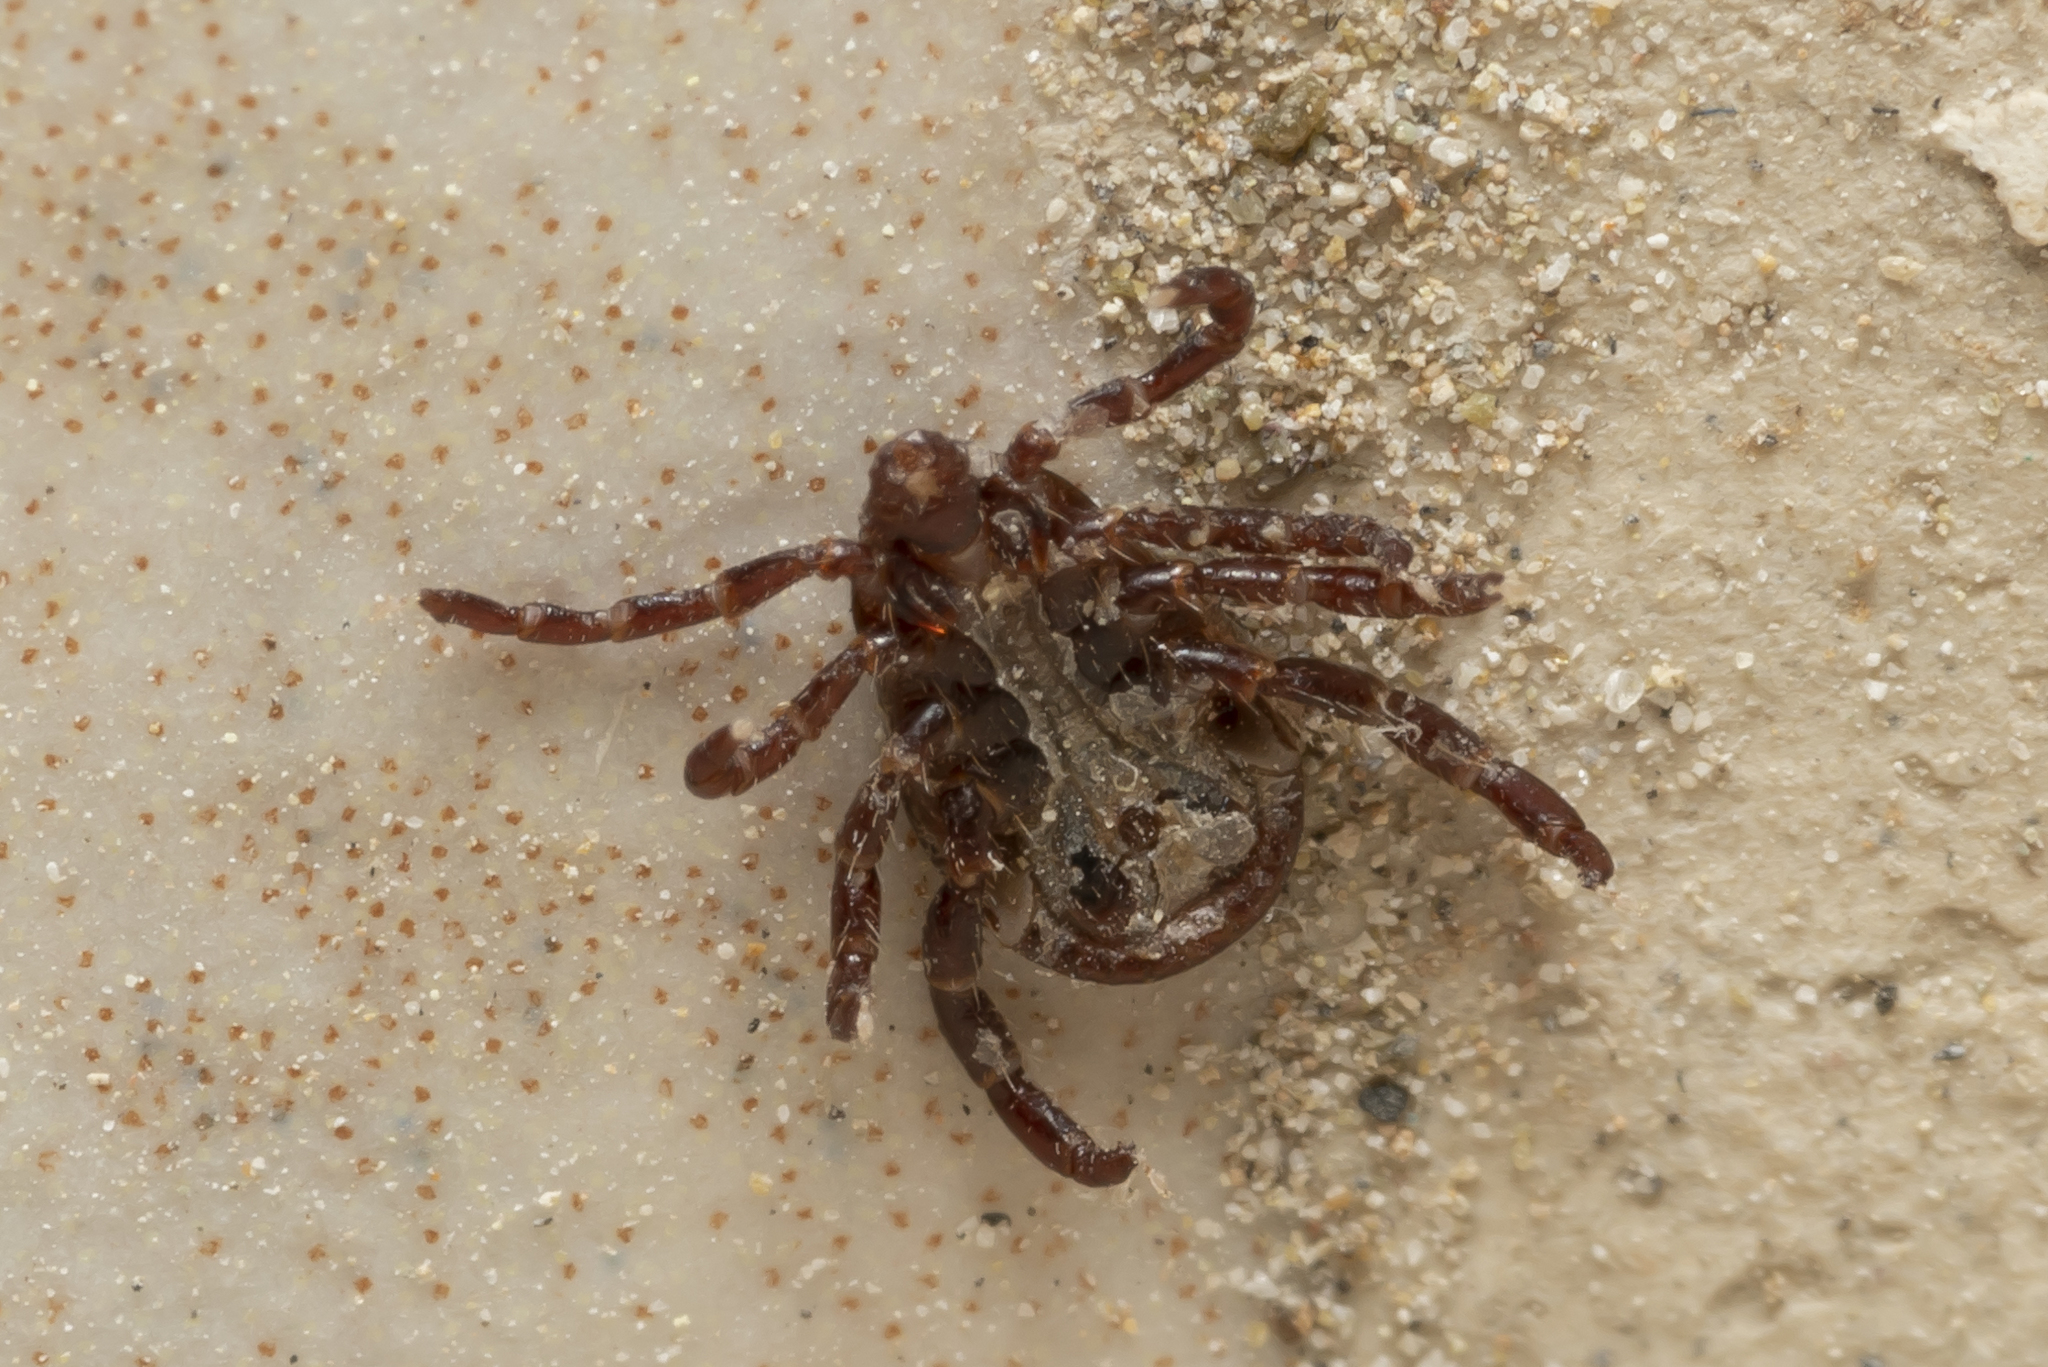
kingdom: Animalia
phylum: Arthropoda
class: Arachnida
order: Ixodida
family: Ixodidae
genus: Rhipicephalus
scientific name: Rhipicephalus turanicus
